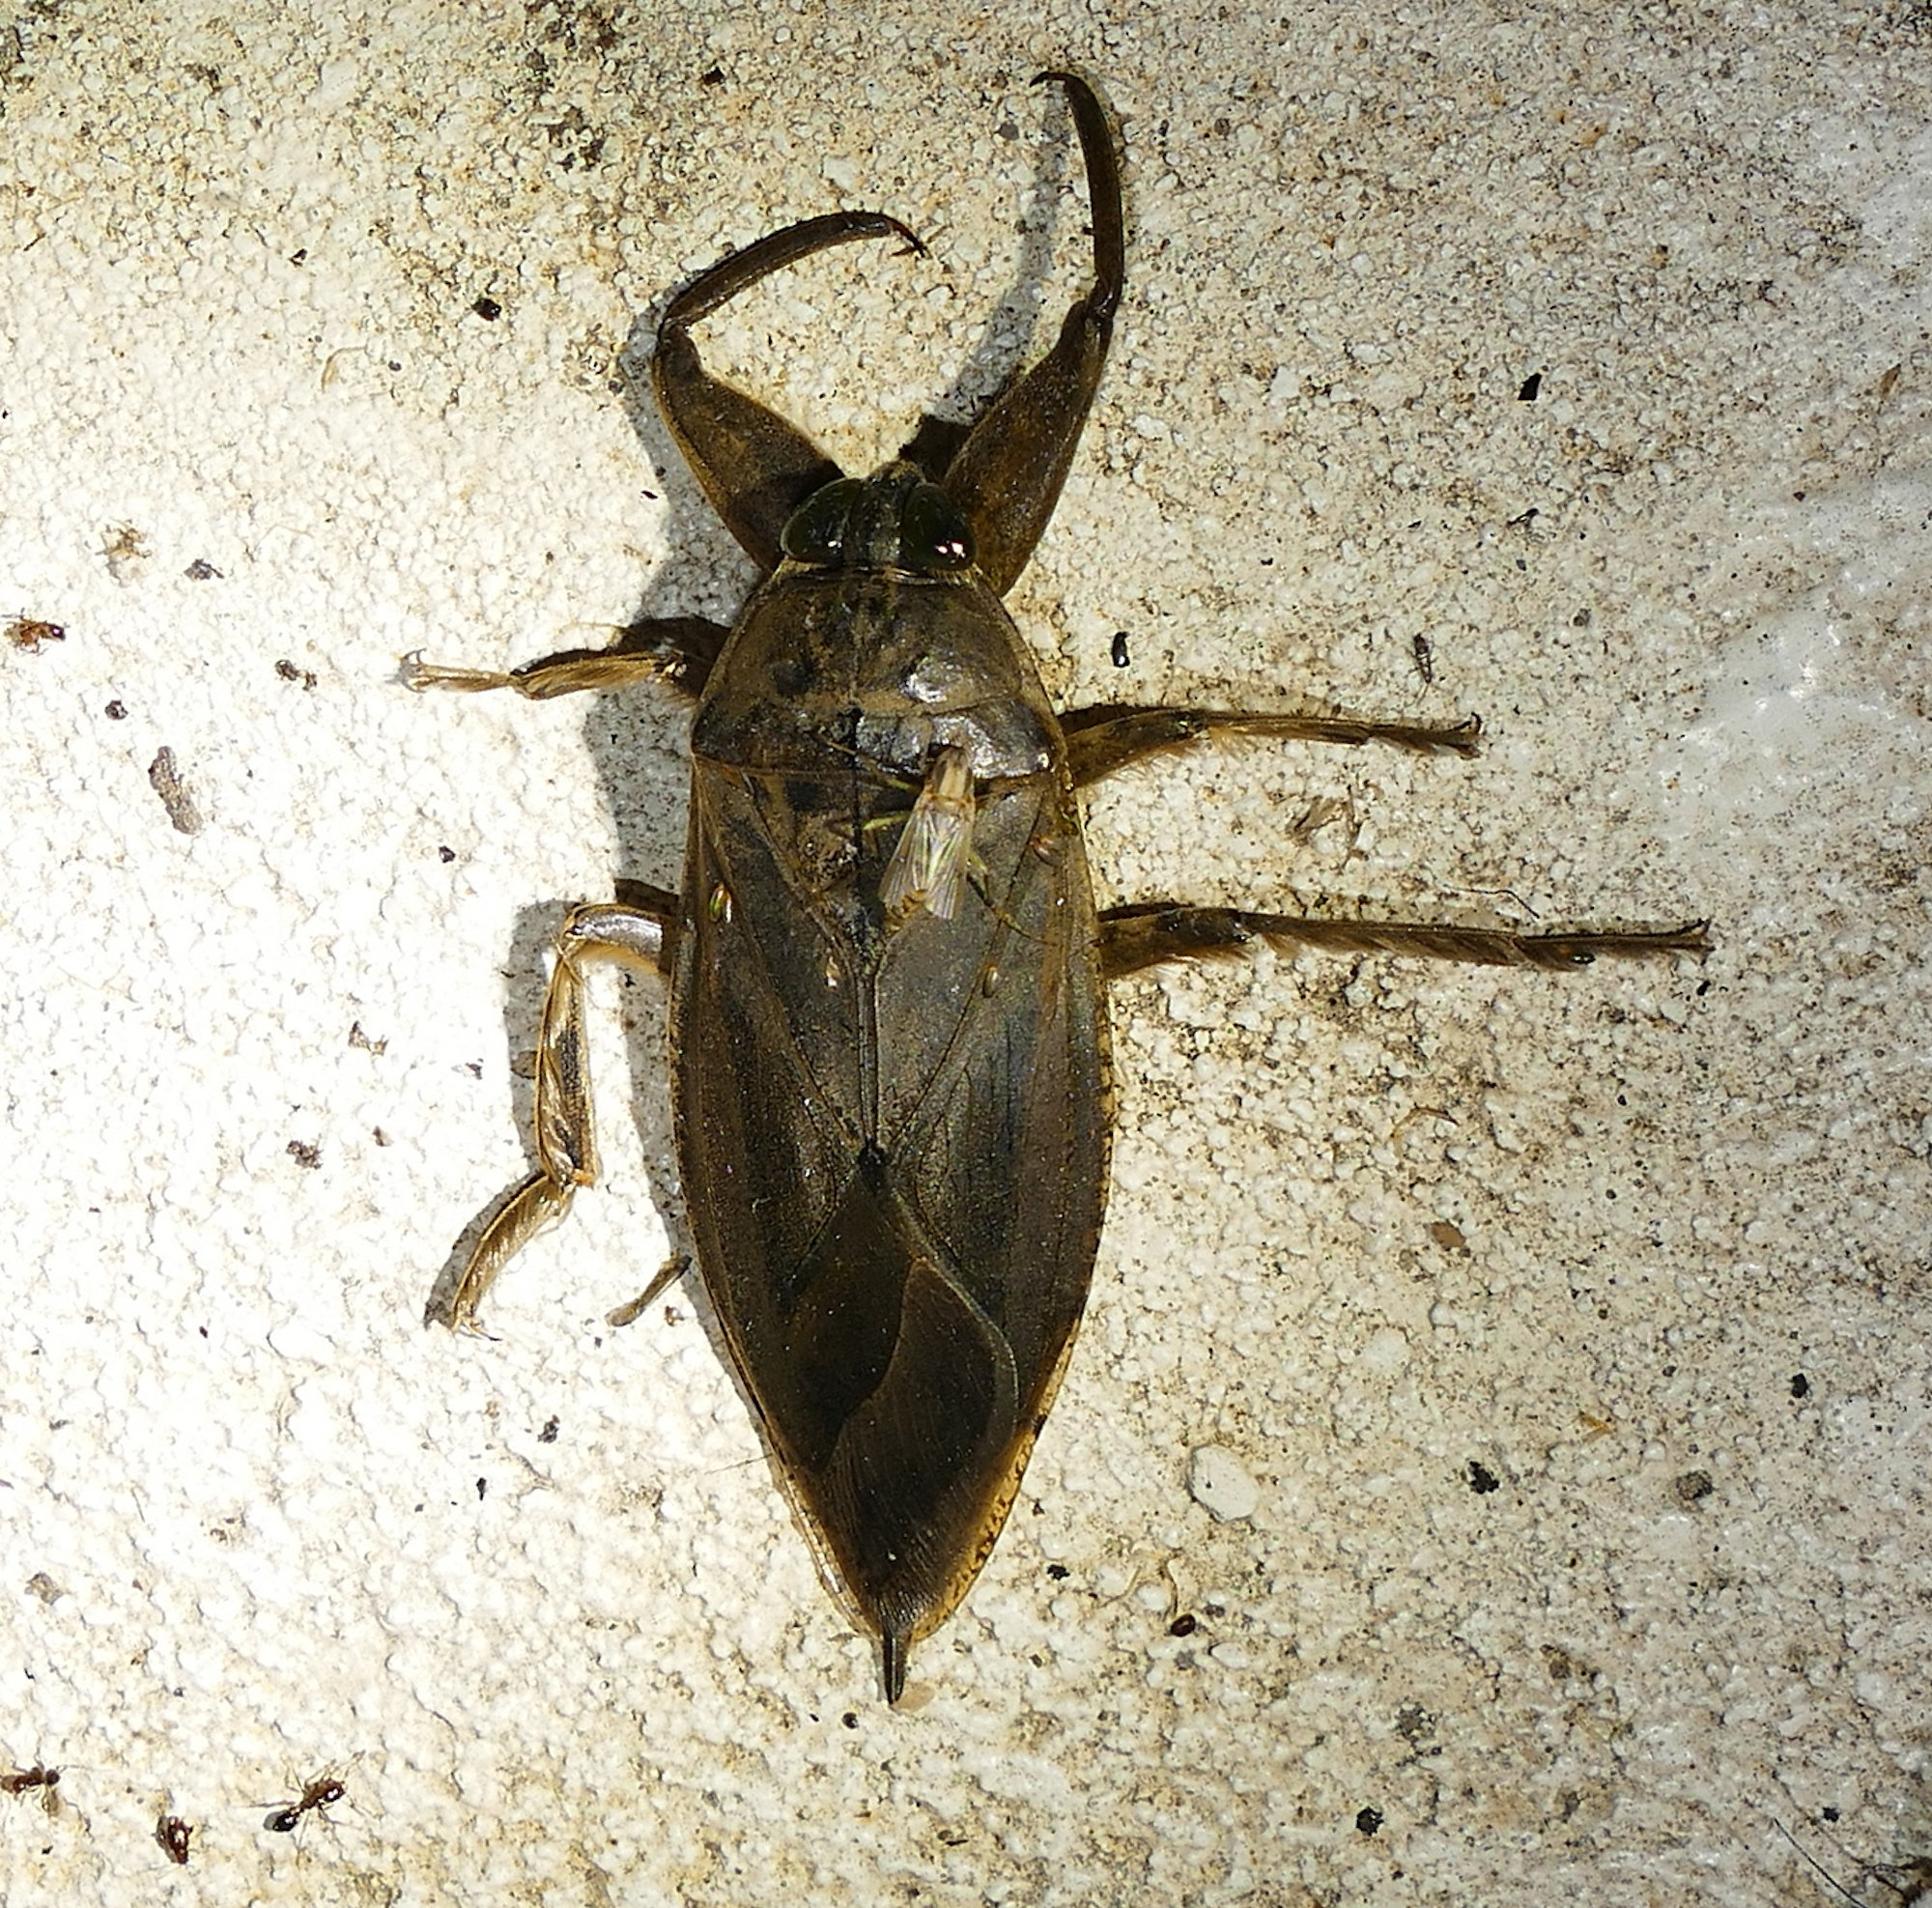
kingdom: Animalia
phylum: Arthropoda
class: Insecta
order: Hemiptera
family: Belostomatidae
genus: Lethocerus
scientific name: Lethocerus uhleri
